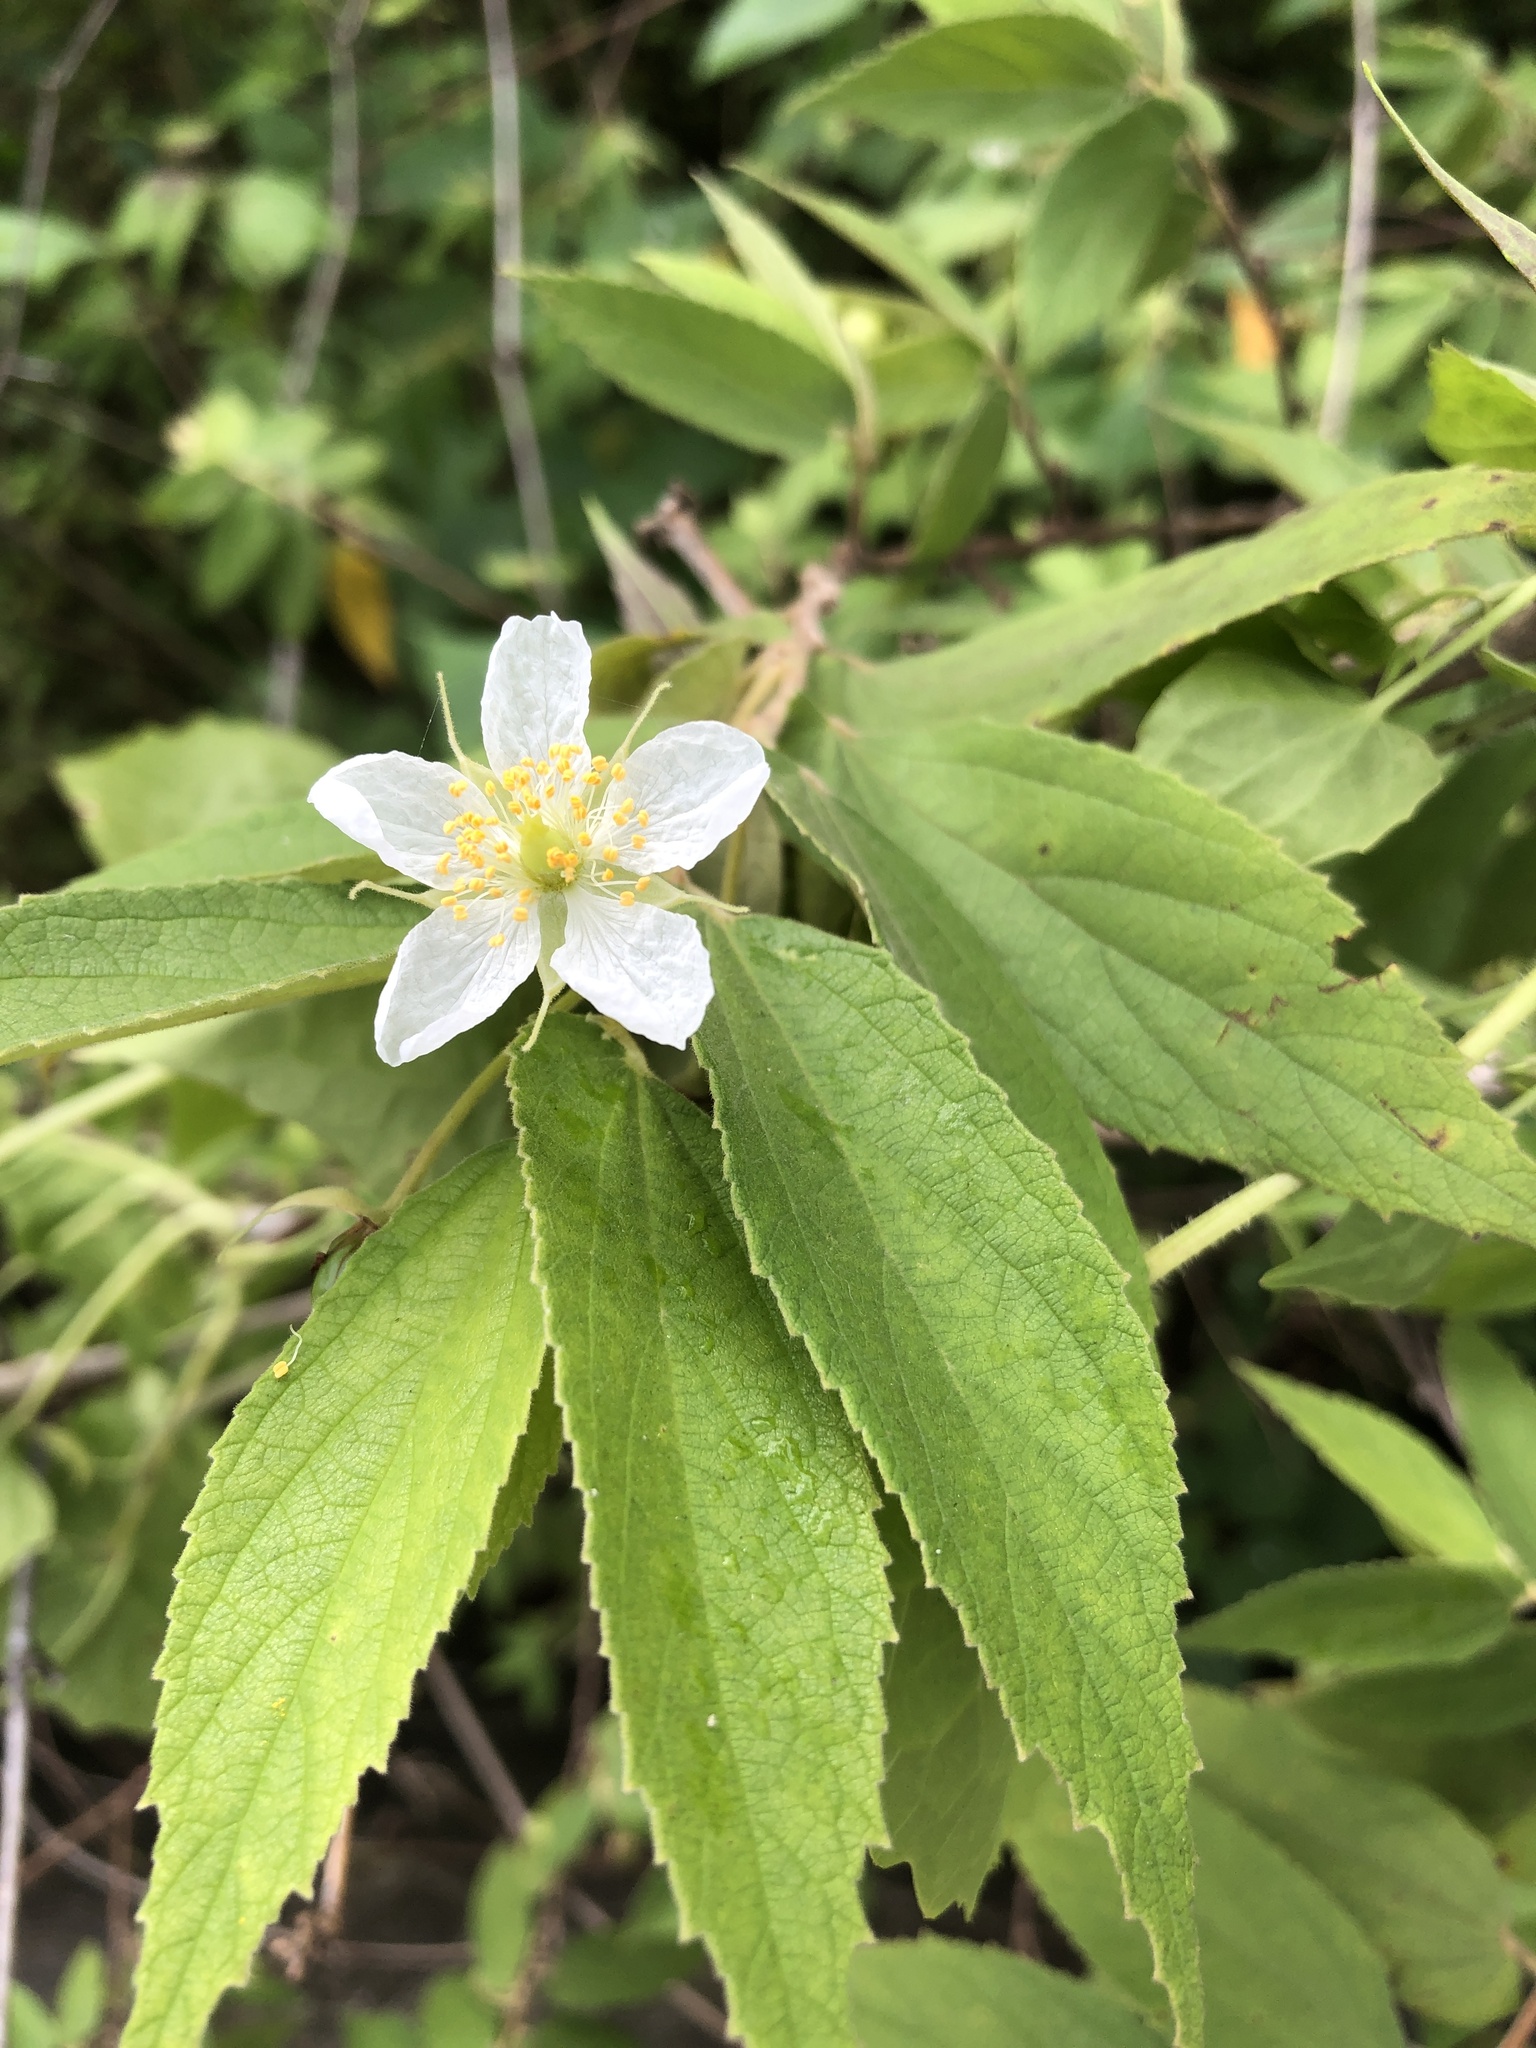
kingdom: Plantae
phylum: Tracheophyta
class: Magnoliopsida
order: Malvales
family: Muntingiaceae
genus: Muntingia
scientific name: Muntingia calabura
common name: Strawberrytree
